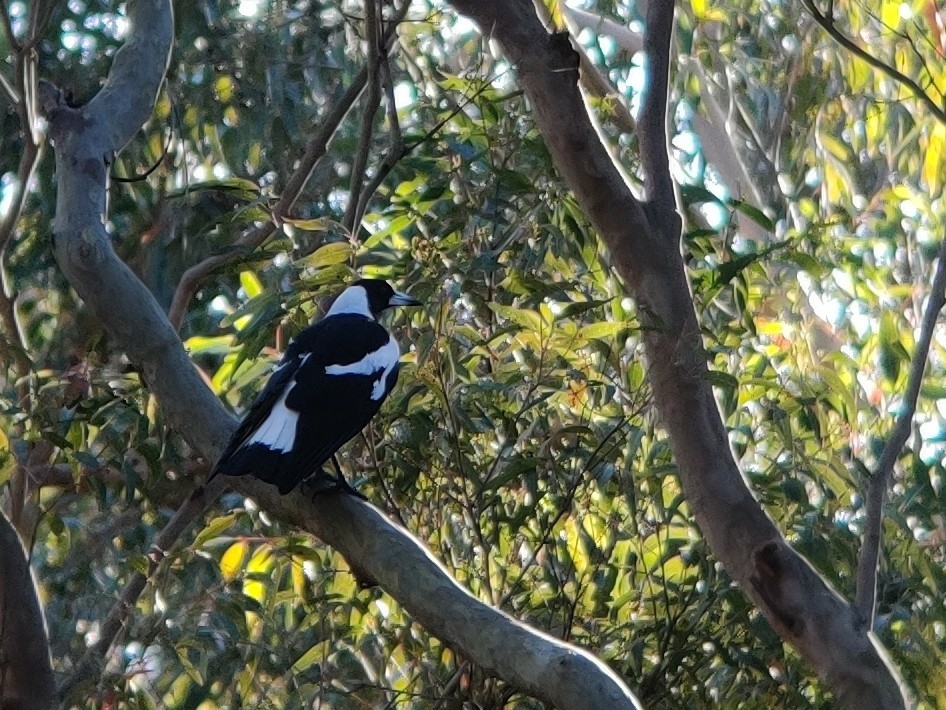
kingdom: Animalia
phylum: Chordata
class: Aves
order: Passeriformes
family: Cracticidae
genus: Gymnorhina
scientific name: Gymnorhina tibicen
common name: Australian magpie
